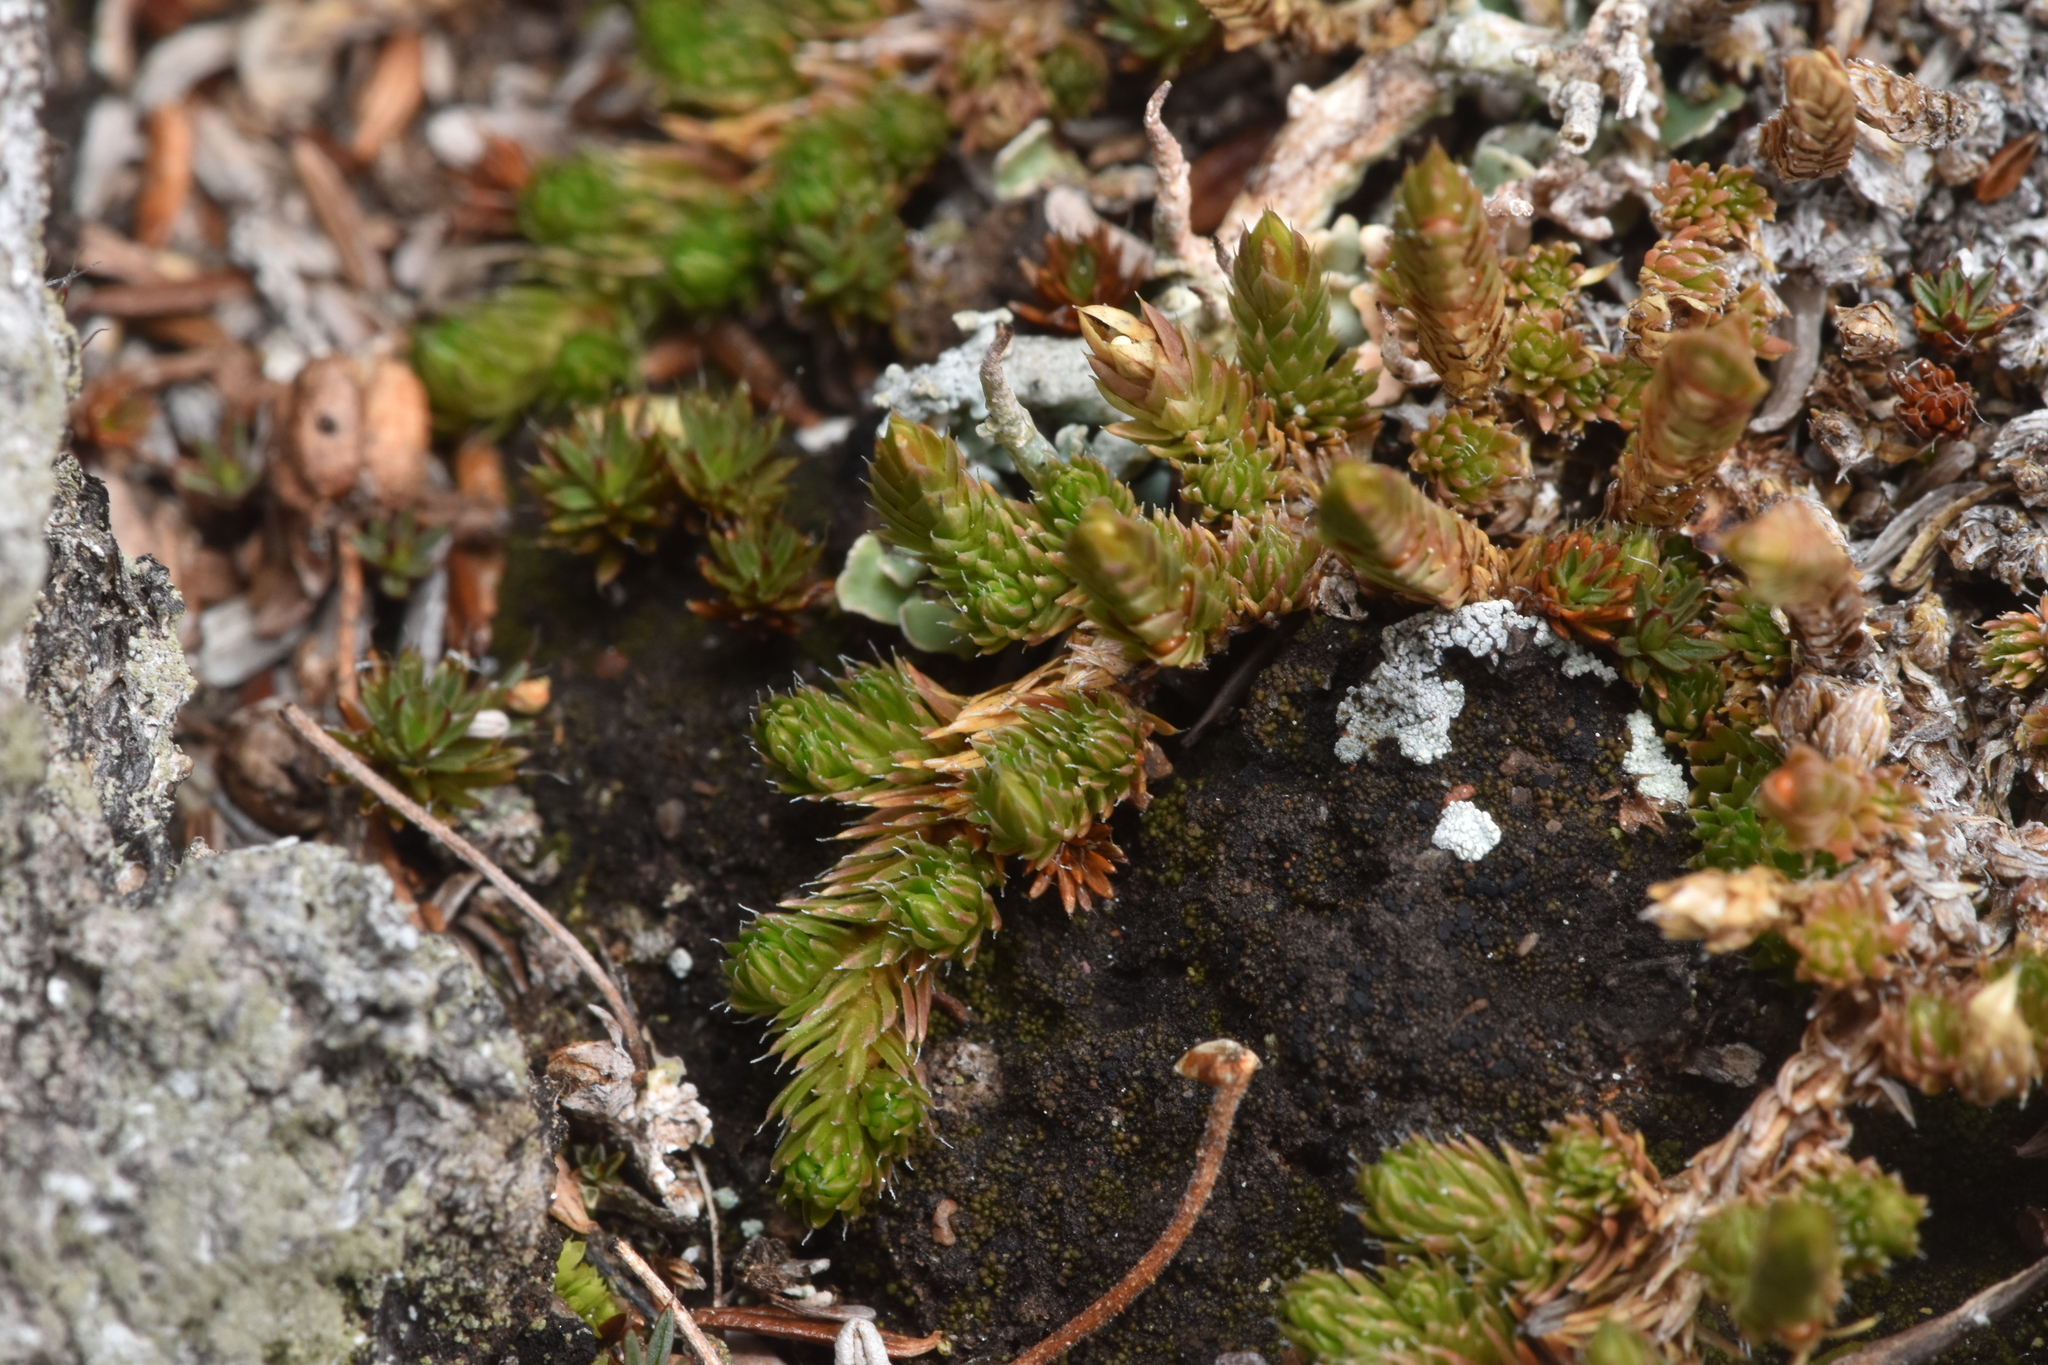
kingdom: Plantae
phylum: Tracheophyta
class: Lycopodiopsida
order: Selaginellales
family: Selaginellaceae
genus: Selaginella
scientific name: Selaginella densa
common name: Mountain spike-moss
